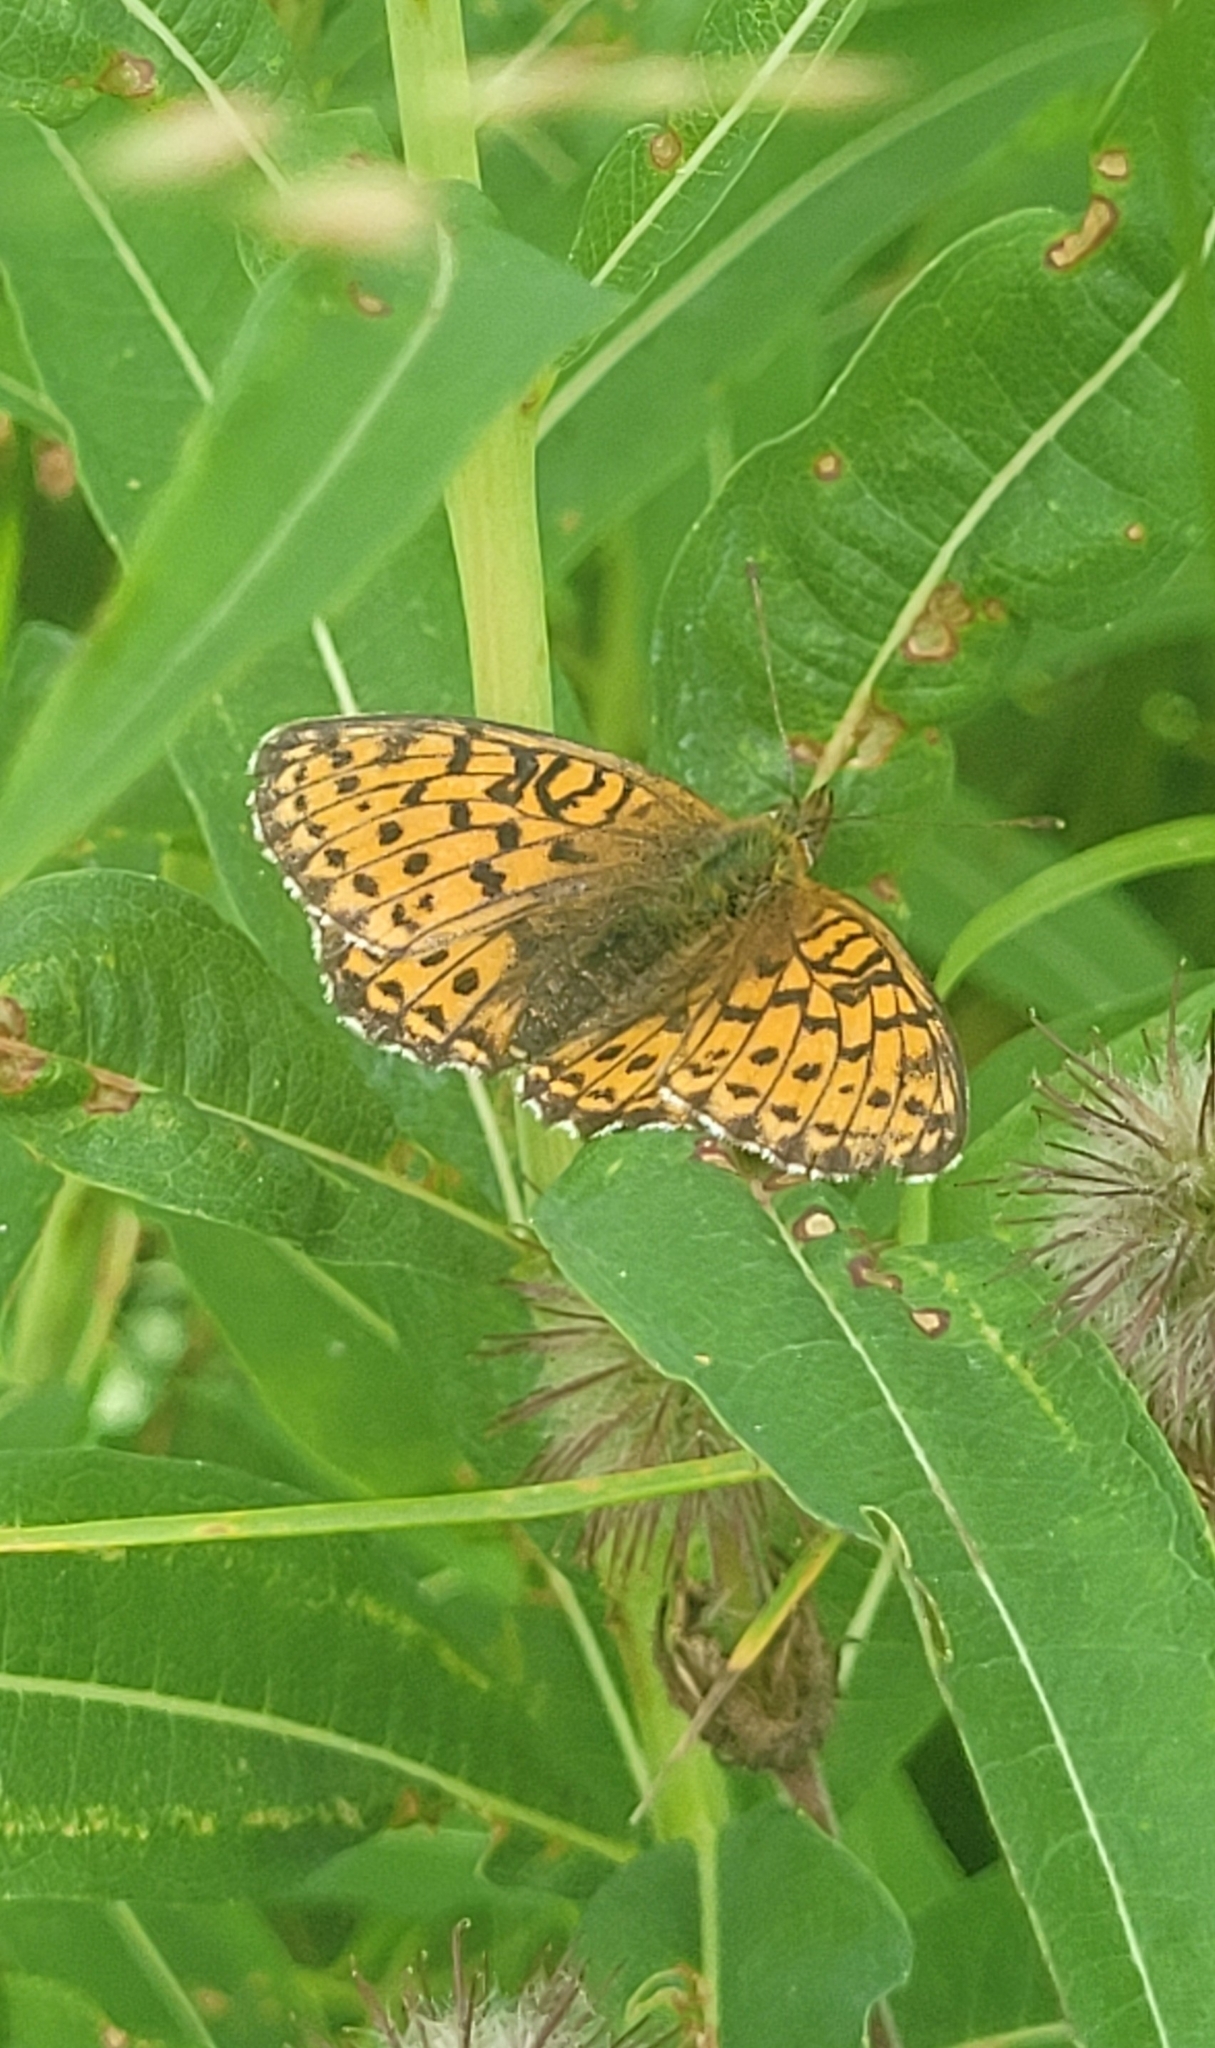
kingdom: Animalia
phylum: Arthropoda
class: Insecta
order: Lepidoptera
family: Nymphalidae
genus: Brenthis
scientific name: Brenthis ino
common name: Lesser marbled fritillary
